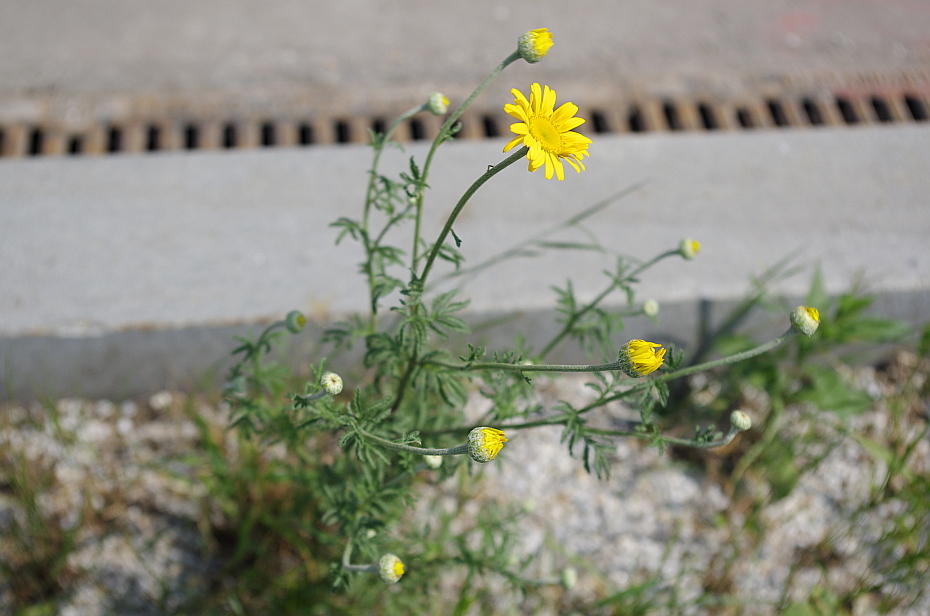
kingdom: Plantae
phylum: Tracheophyta
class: Magnoliopsida
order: Asterales
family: Asteraceae
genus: Cota
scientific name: Cota tinctoria
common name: Golden chamomile
